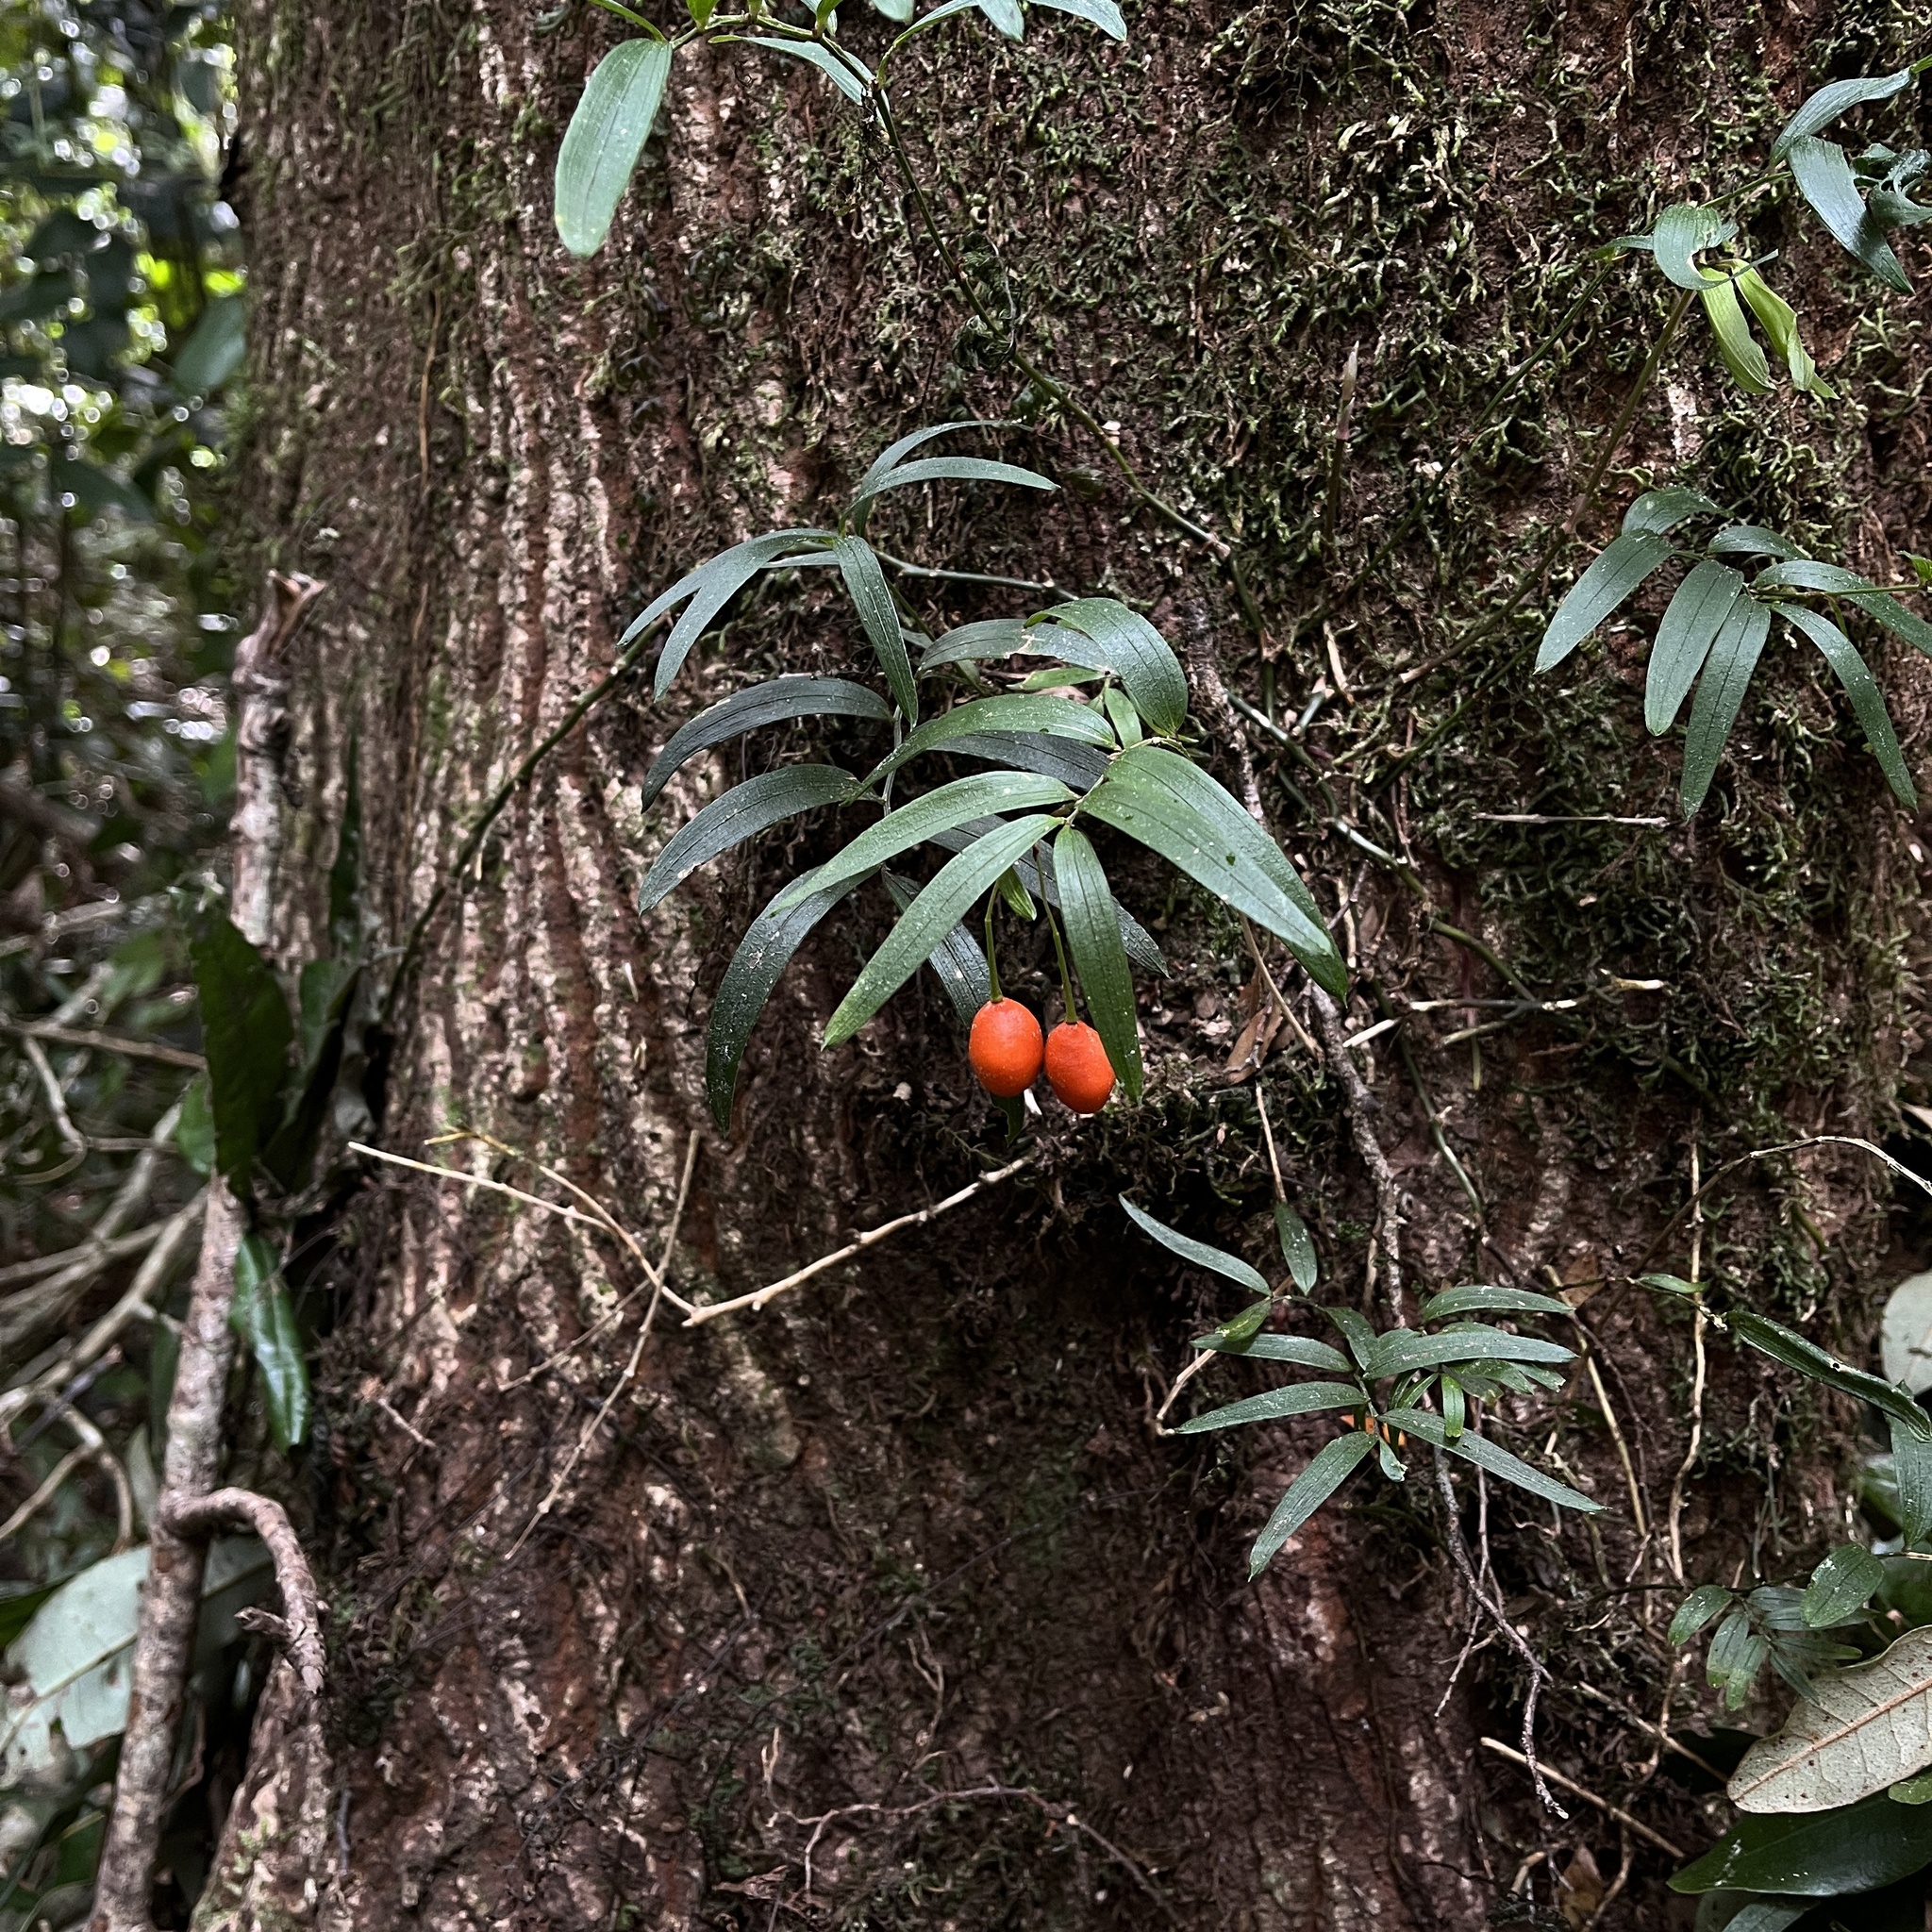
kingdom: Plantae
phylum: Tracheophyta
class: Liliopsida
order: Liliales
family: Alstroemeriaceae
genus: Luzuriaga
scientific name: Luzuriaga radicans
